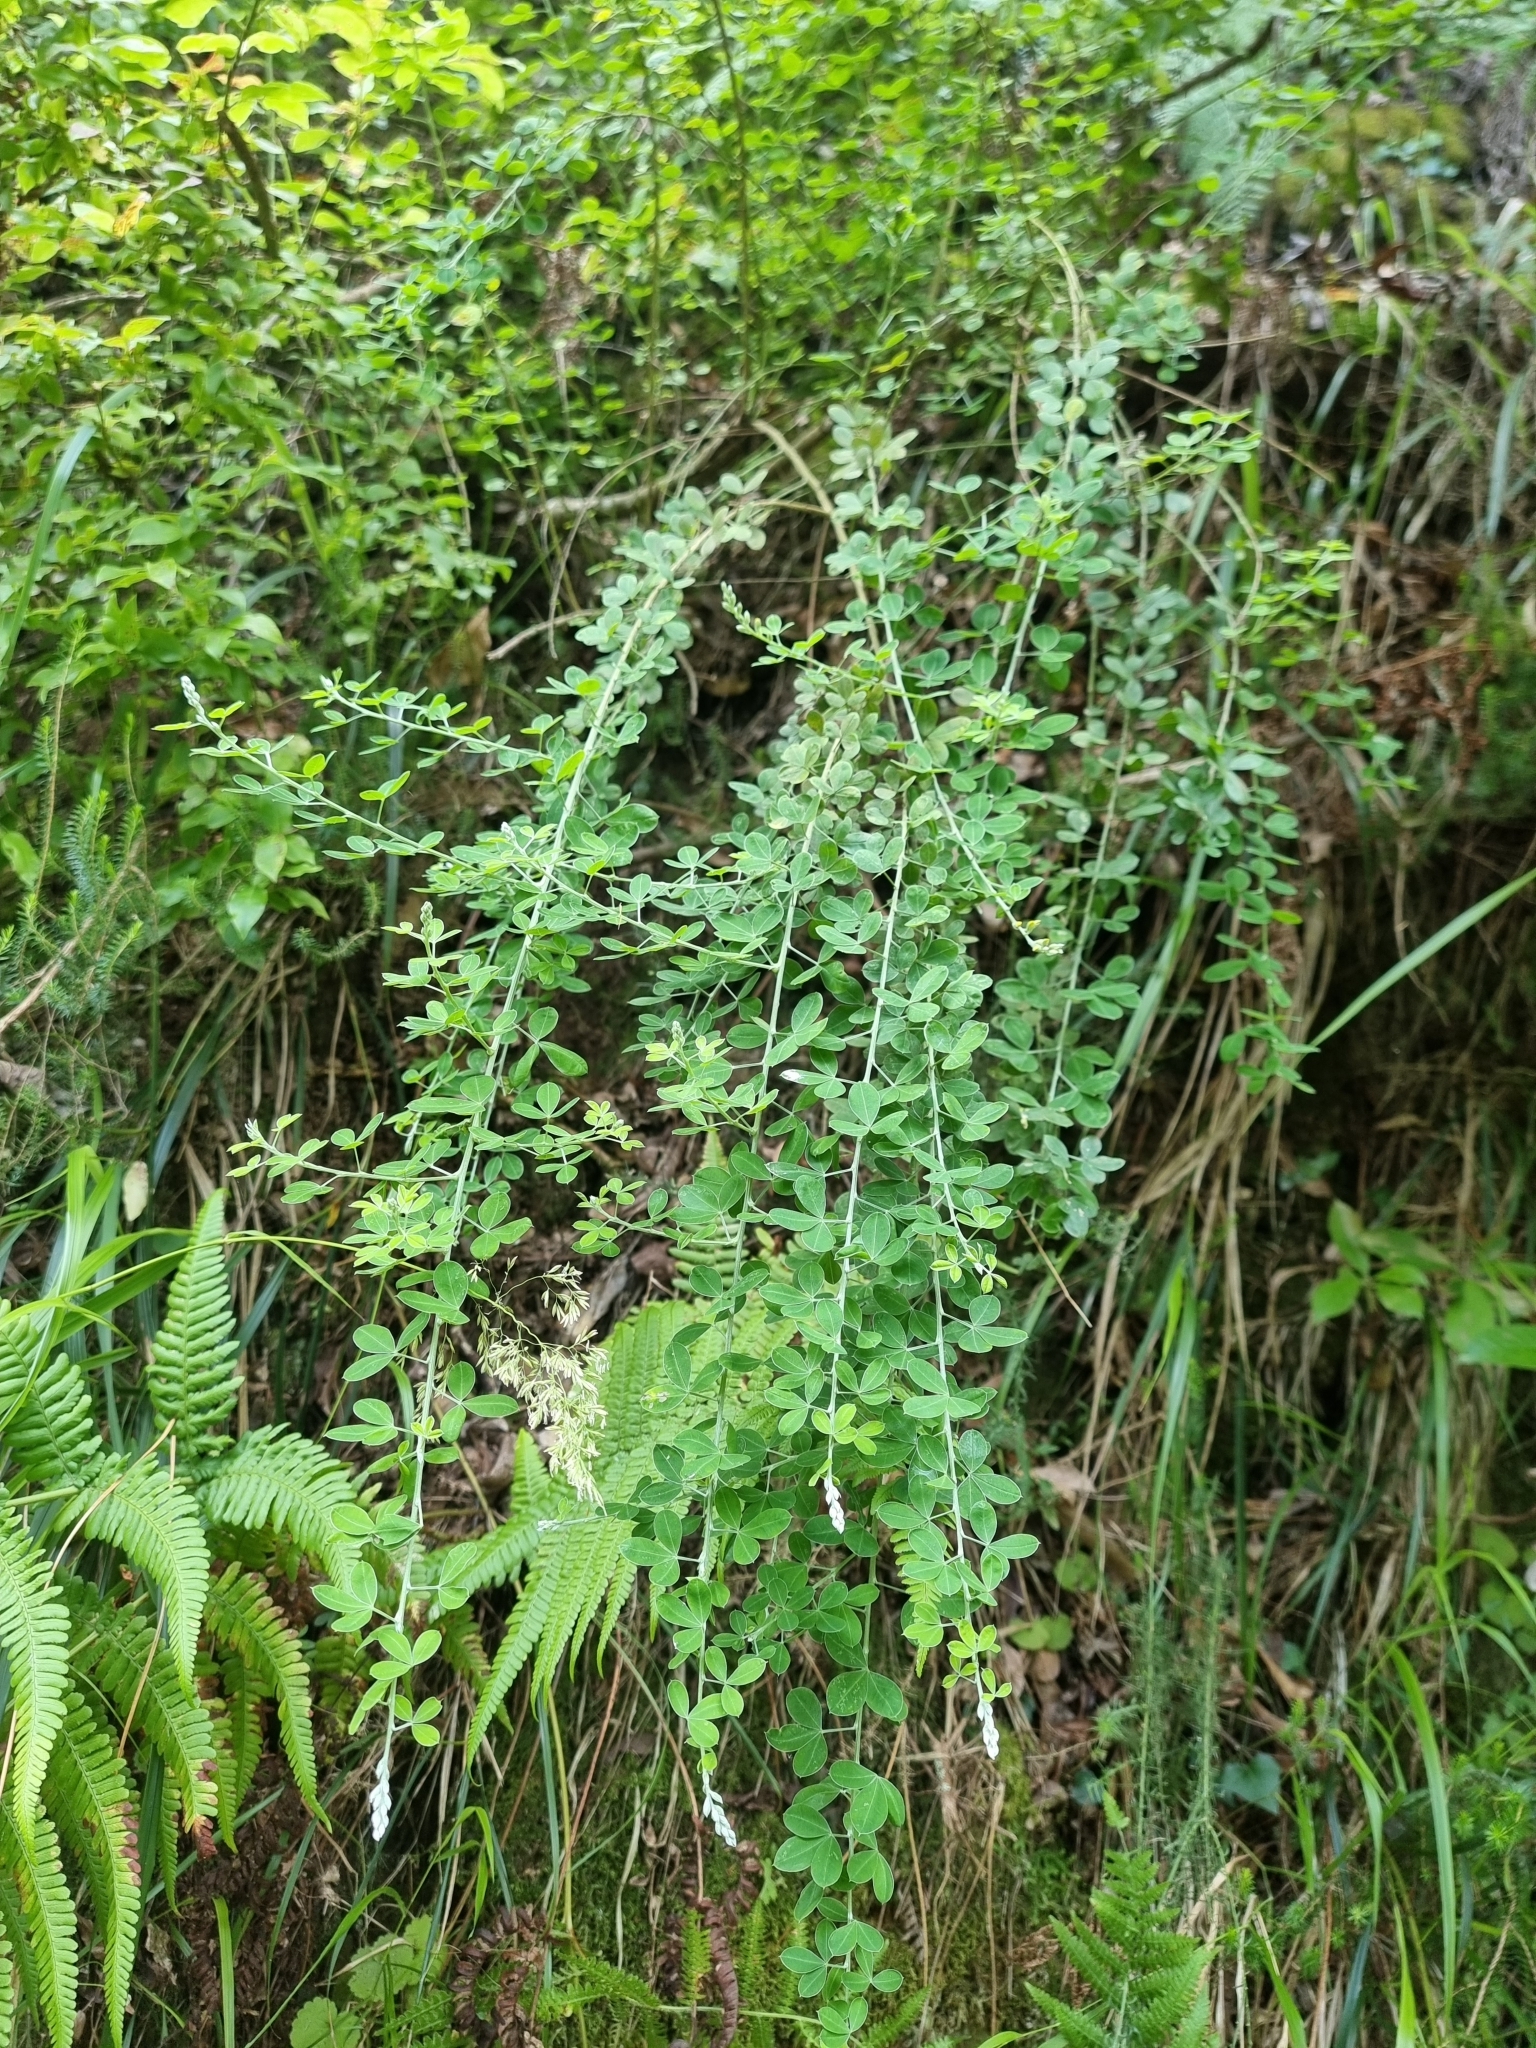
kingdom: Plantae
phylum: Tracheophyta
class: Magnoliopsida
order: Fabales
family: Fabaceae
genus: Genista
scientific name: Genista maderensis
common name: Madeira dyer's greenweed
